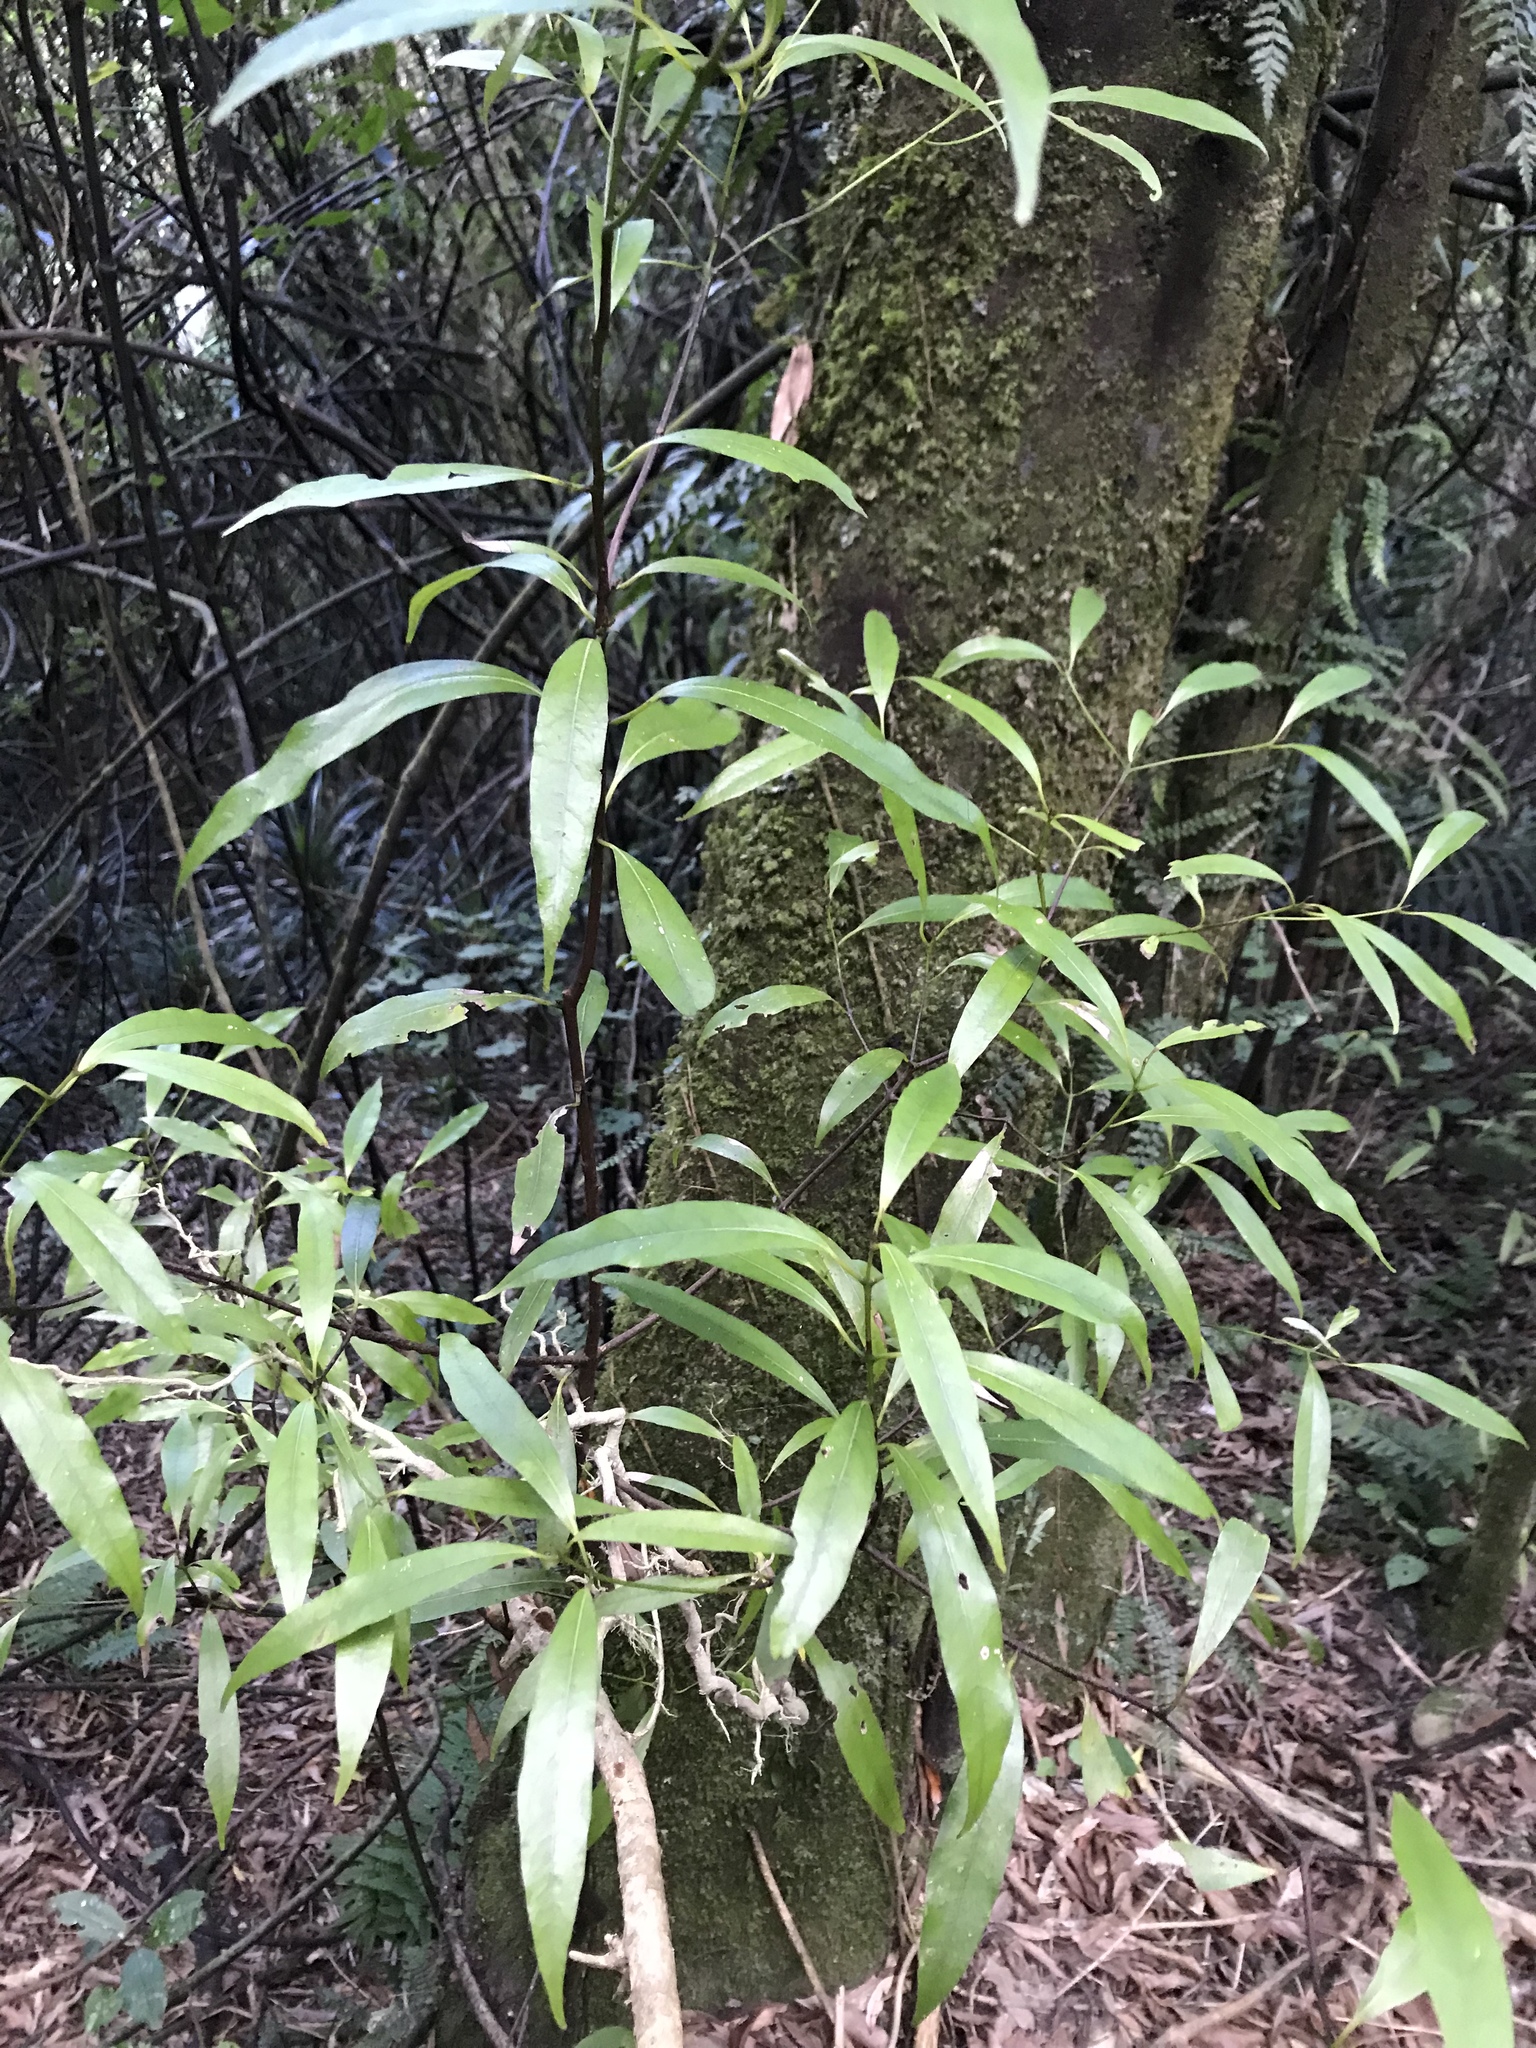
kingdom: Plantae
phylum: Tracheophyta
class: Magnoliopsida
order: Laurales
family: Lauraceae
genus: Beilschmiedia
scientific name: Beilschmiedia tawa
